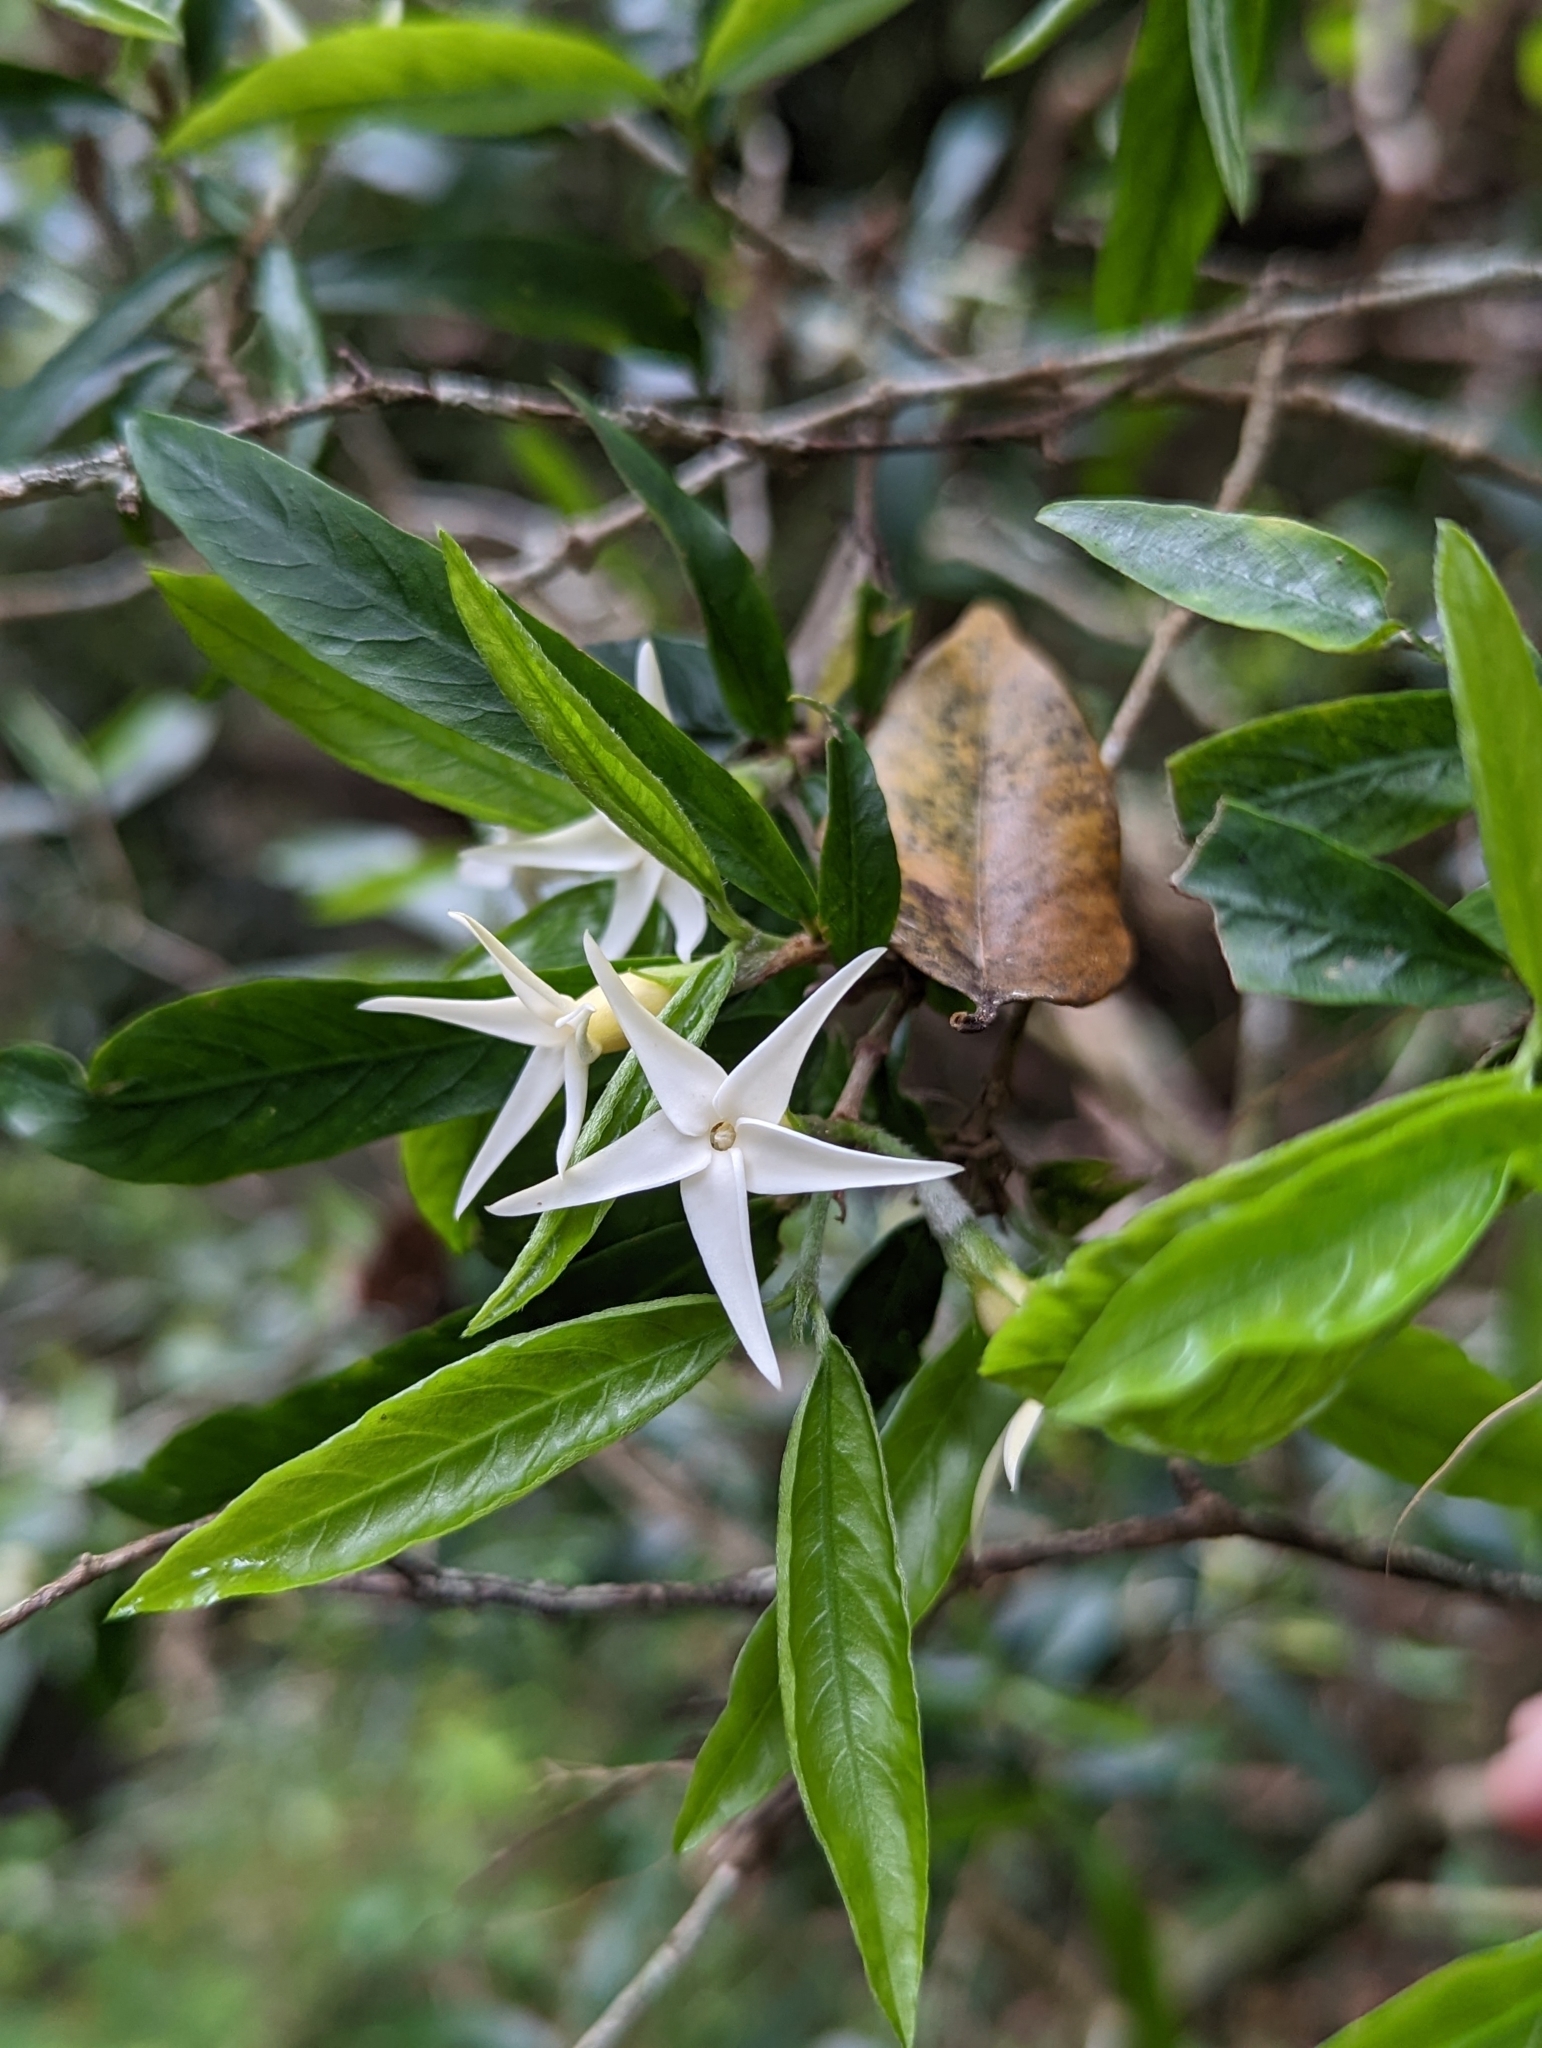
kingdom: Plantae
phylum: Tracheophyta
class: Magnoliopsida
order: Gentianales
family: Rubiaceae
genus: Atractocarpus
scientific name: Atractocarpus chartaceus
